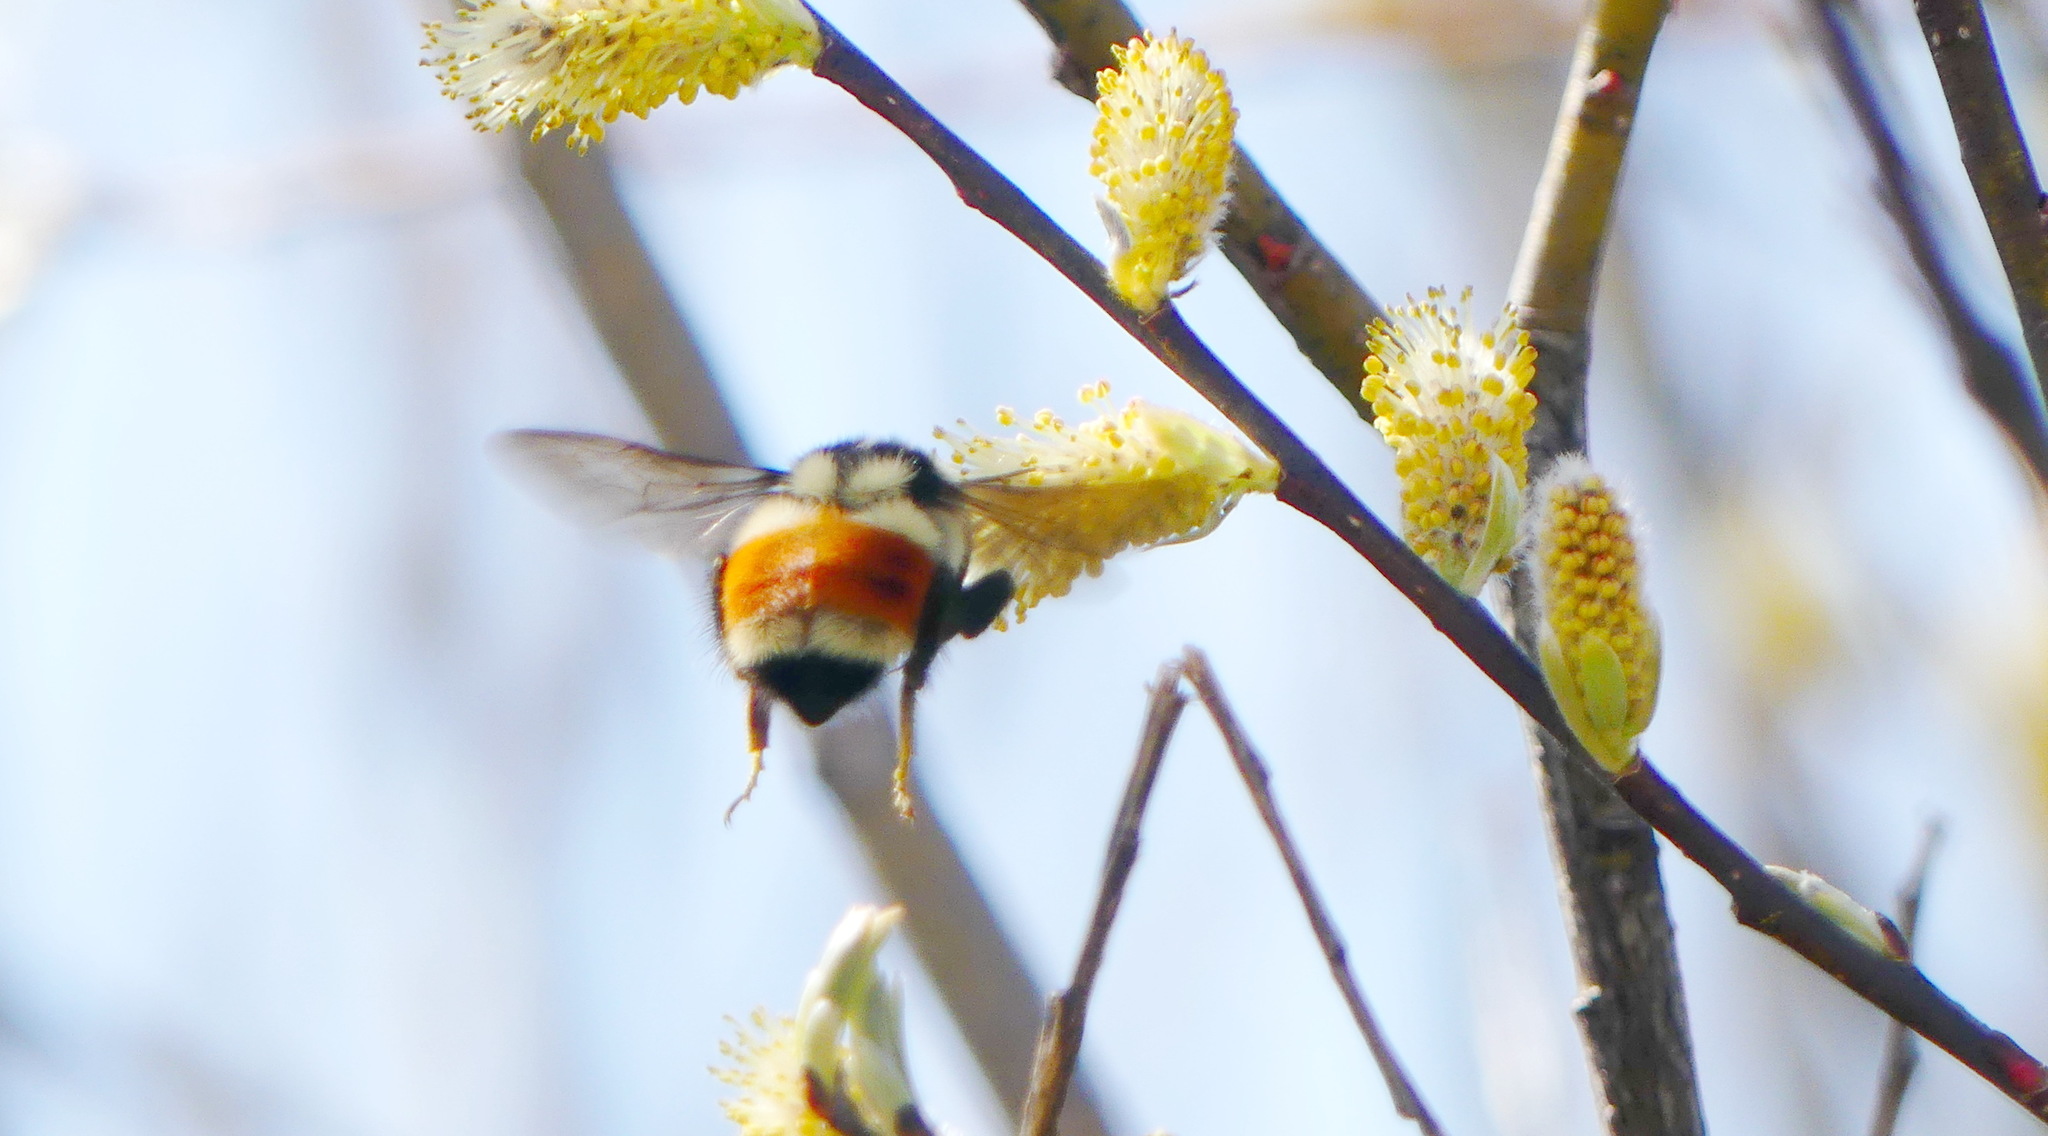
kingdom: Animalia
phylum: Arthropoda
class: Insecta
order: Hymenoptera
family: Apidae
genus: Bombus
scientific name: Bombus ternarius
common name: Tri-colored bumble bee
